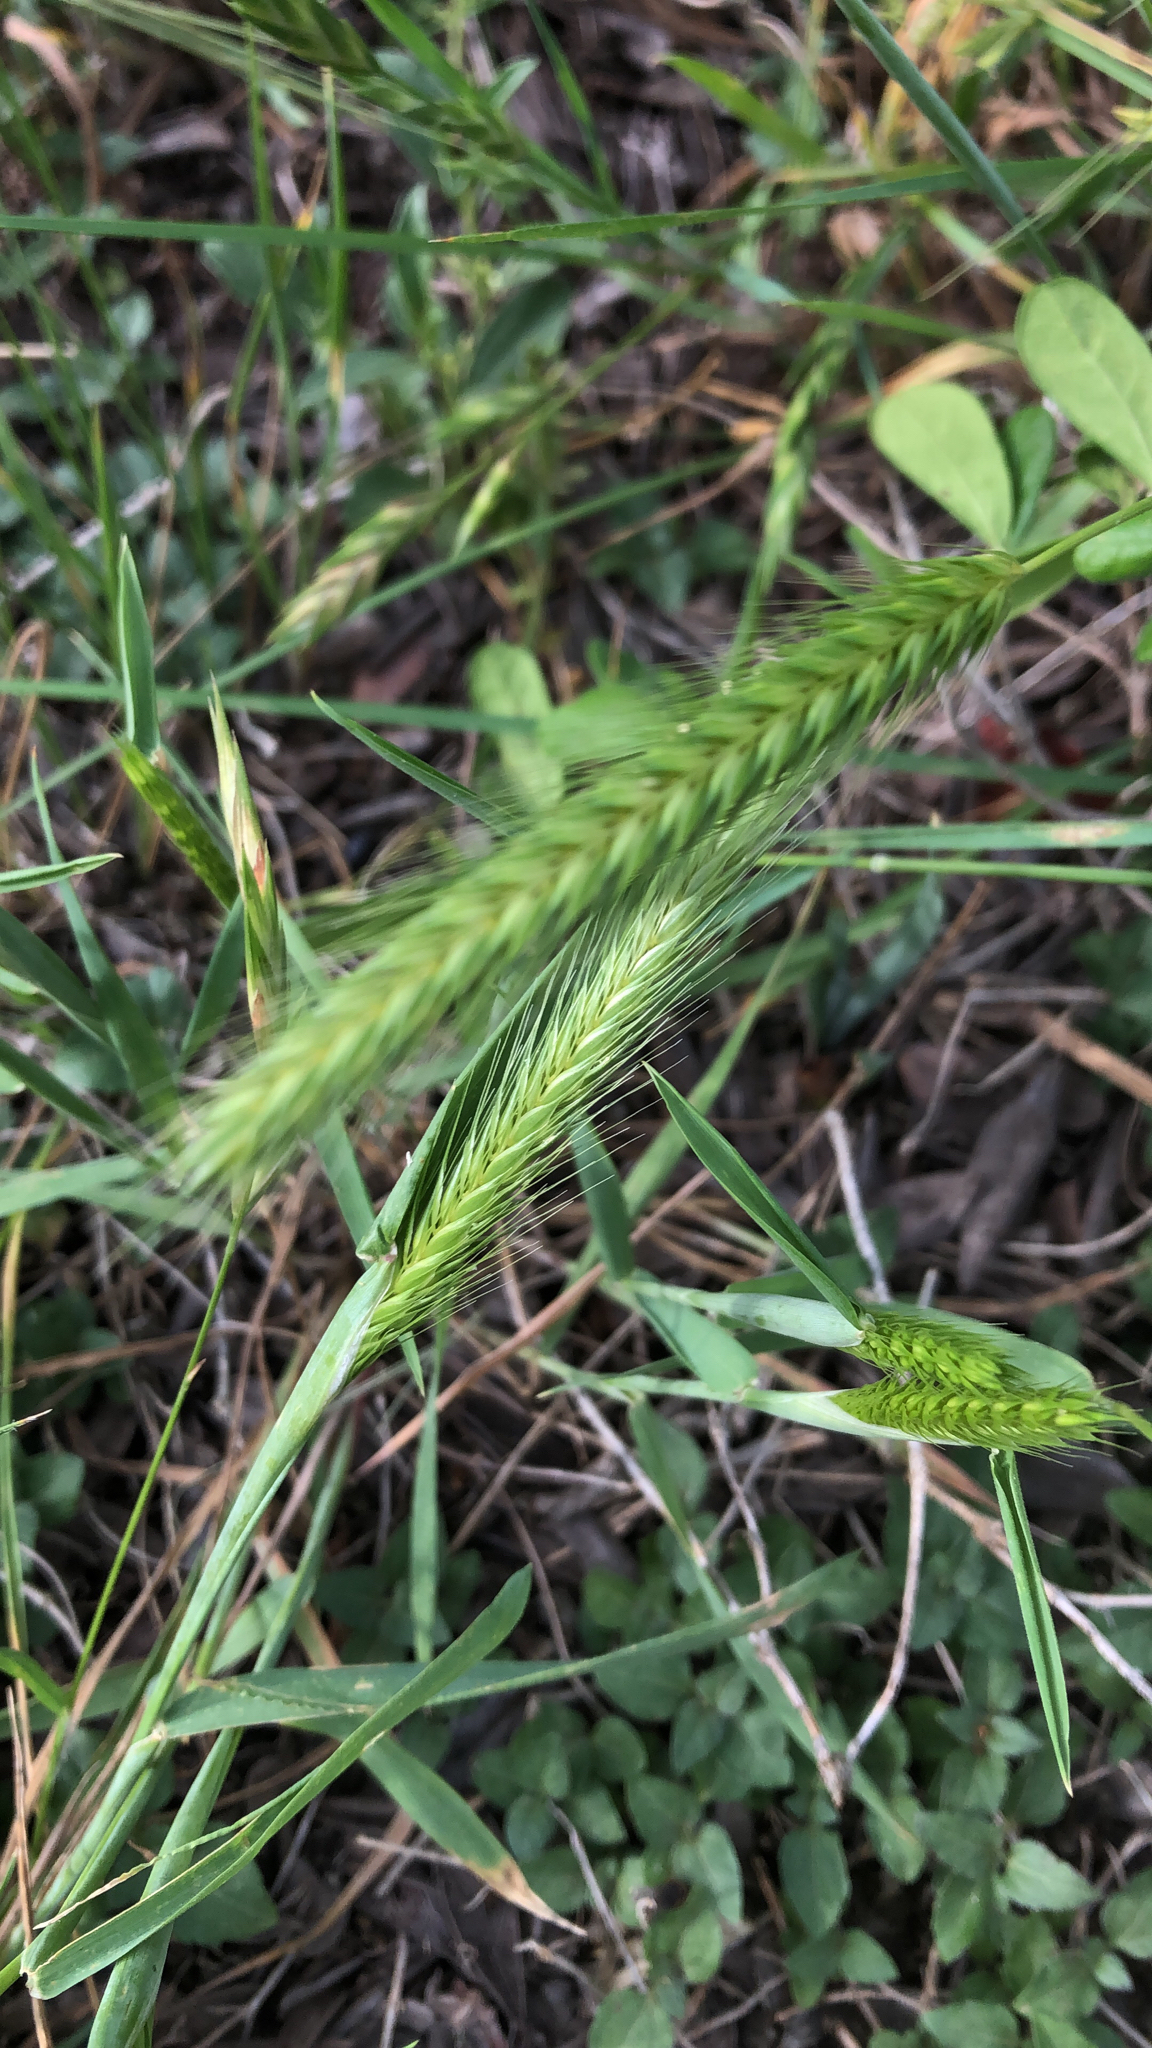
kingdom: Plantae
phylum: Tracheophyta
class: Liliopsida
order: Poales
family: Poaceae
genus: Hordeum
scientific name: Hordeum pusillum
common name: Little barley
